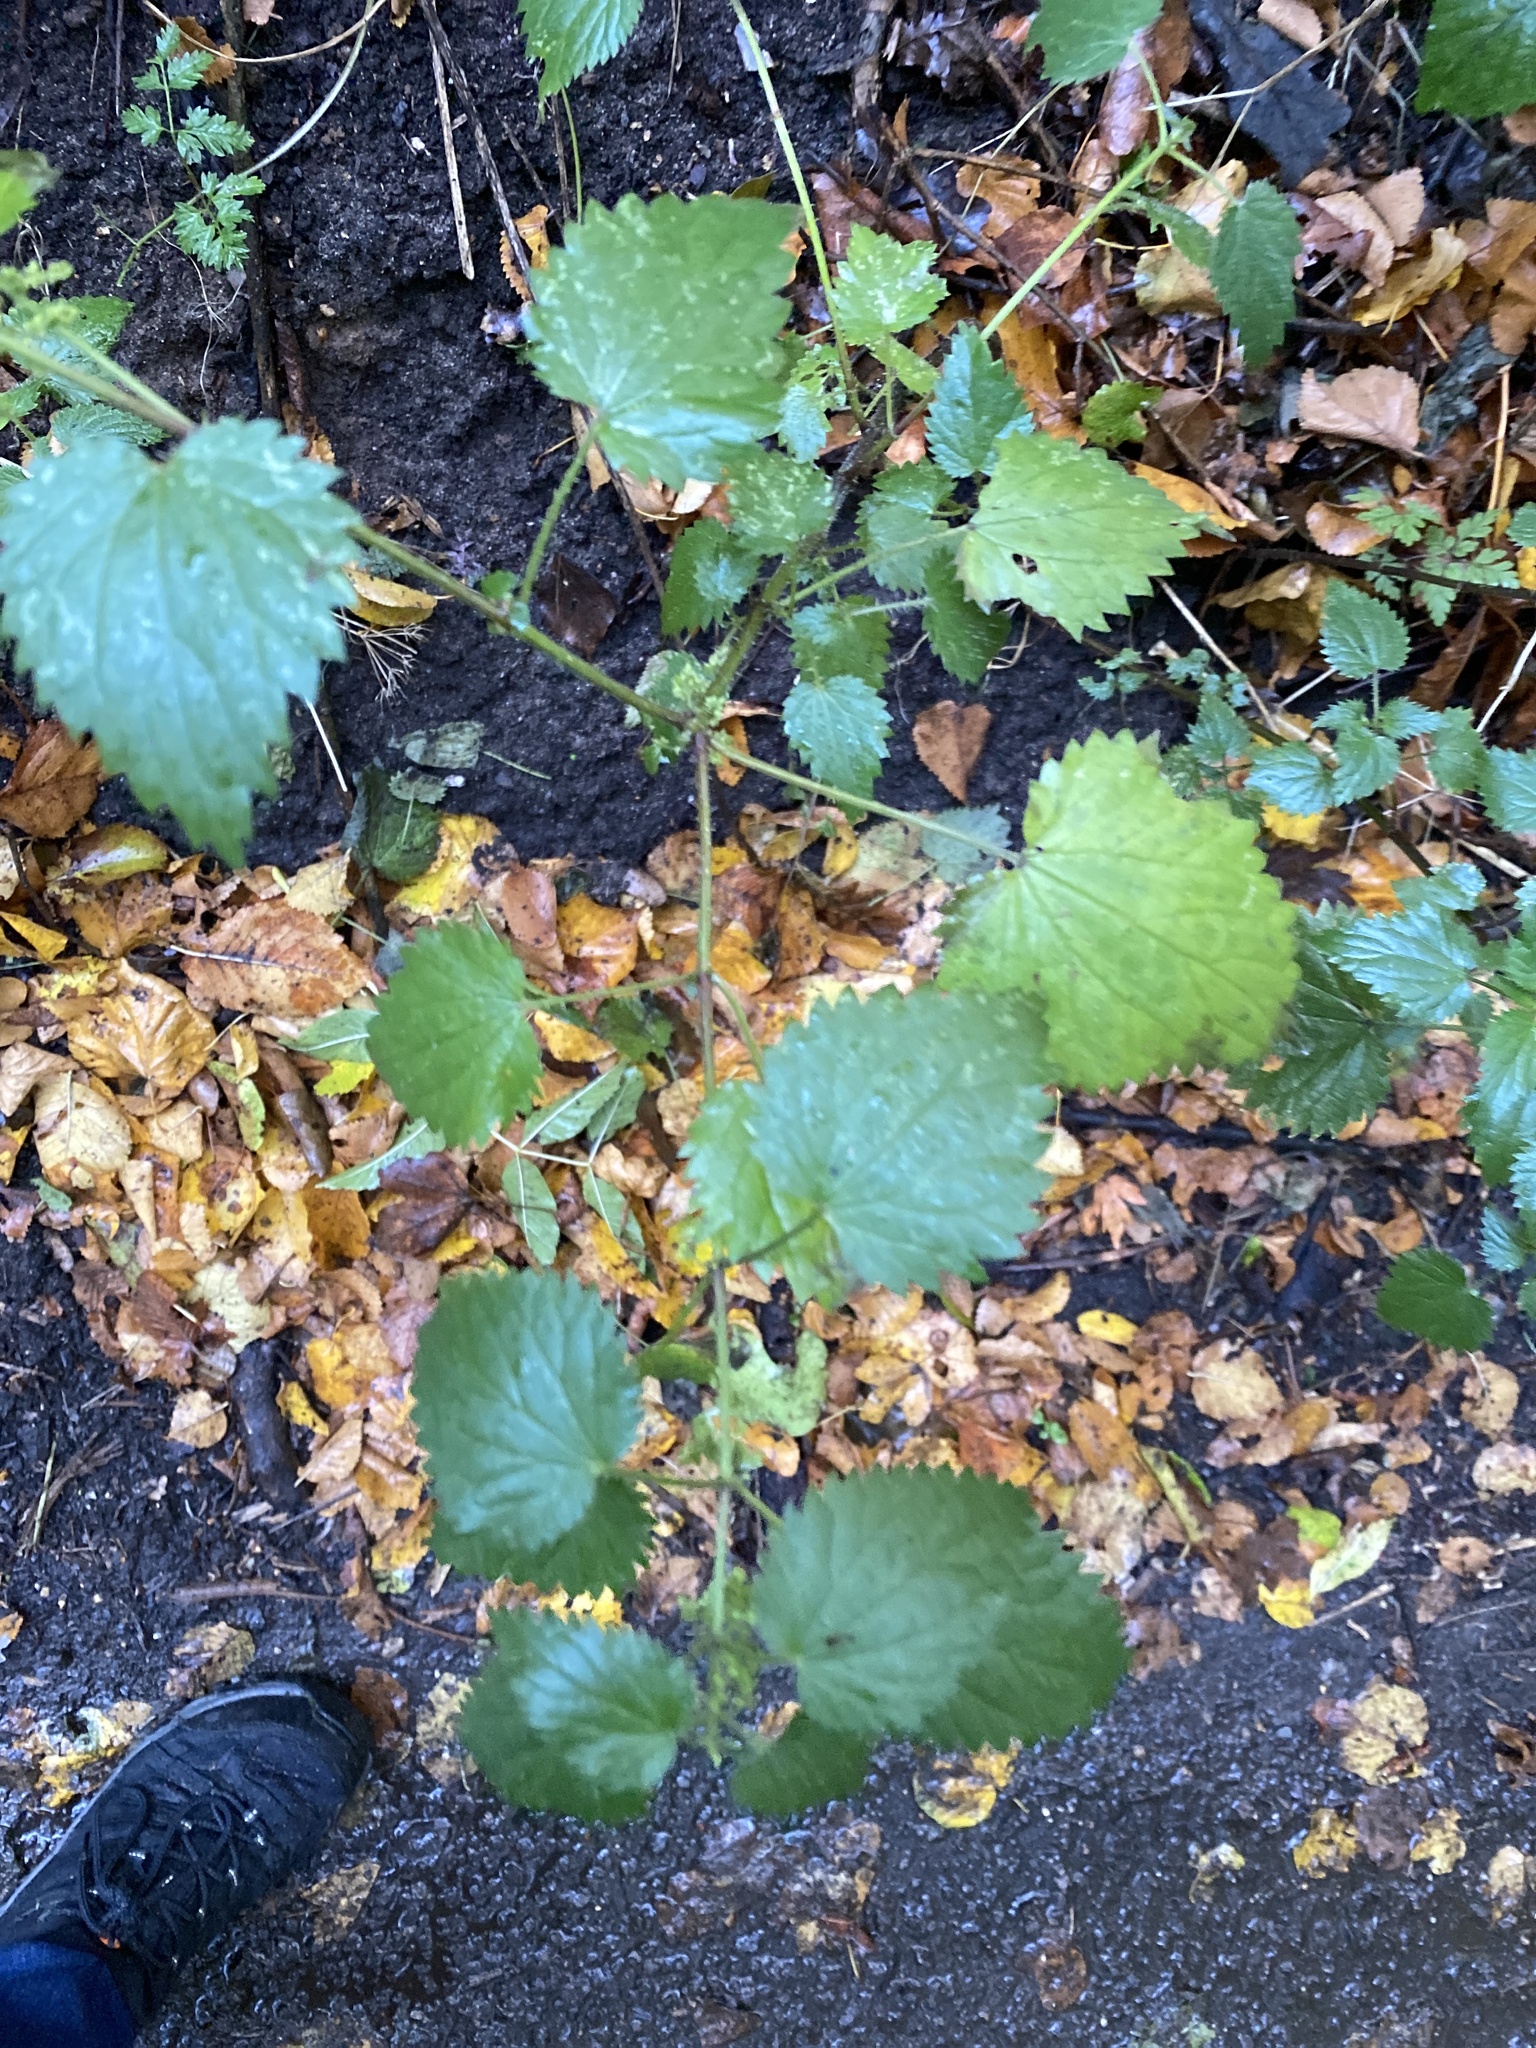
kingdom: Plantae
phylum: Tracheophyta
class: Magnoliopsida
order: Rosales
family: Urticaceae
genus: Urtica
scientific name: Urtica dioica
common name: Common nettle
